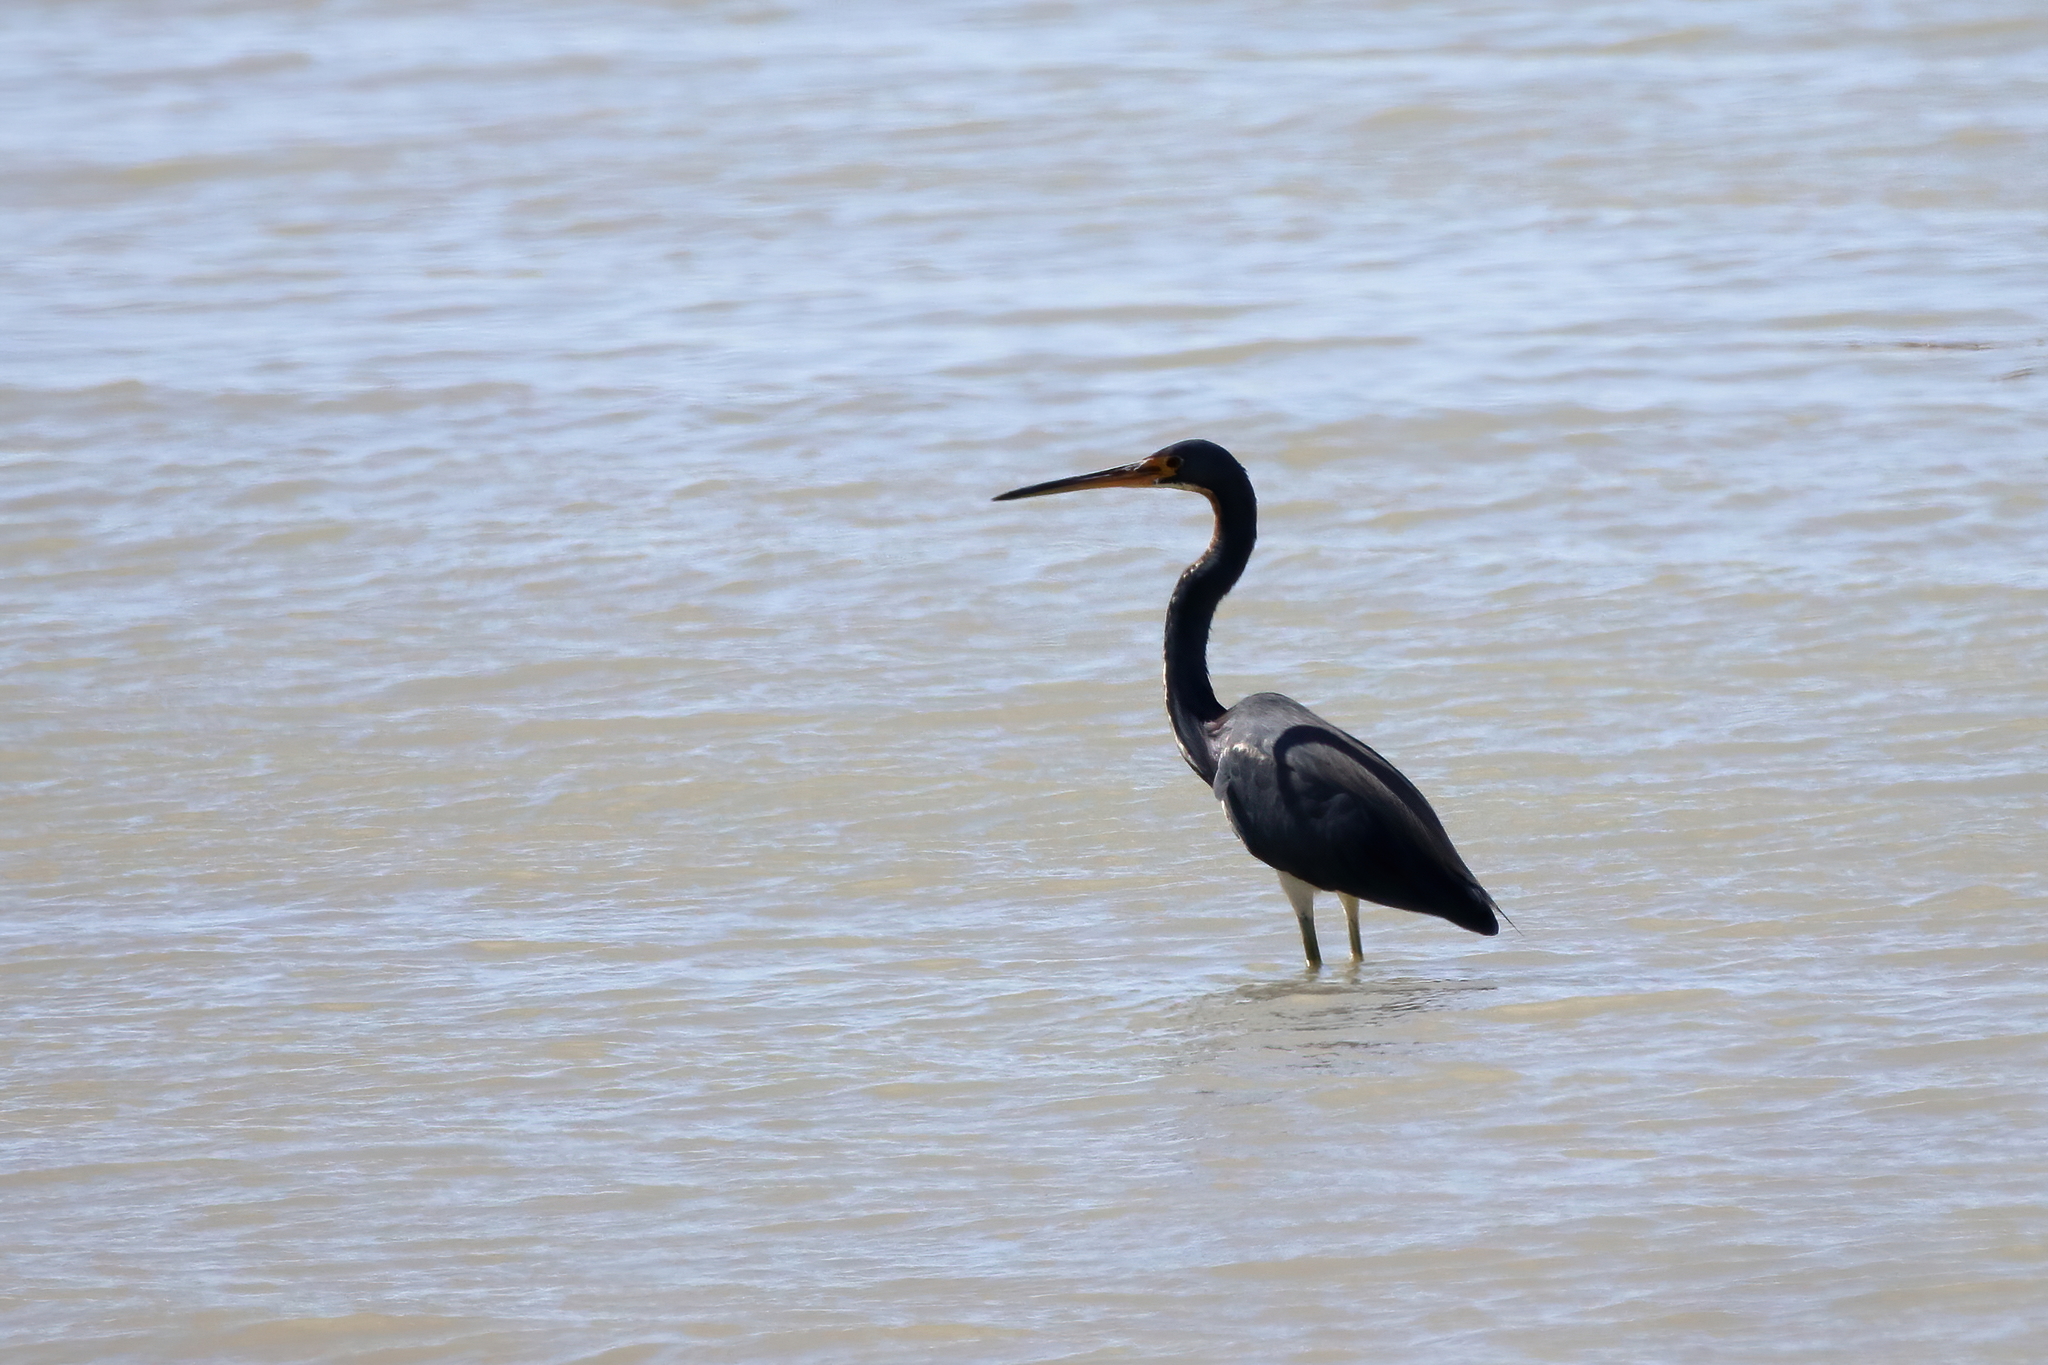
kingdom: Animalia
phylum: Chordata
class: Aves
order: Pelecaniformes
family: Ardeidae
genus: Egretta
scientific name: Egretta tricolor
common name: Tricolored heron
